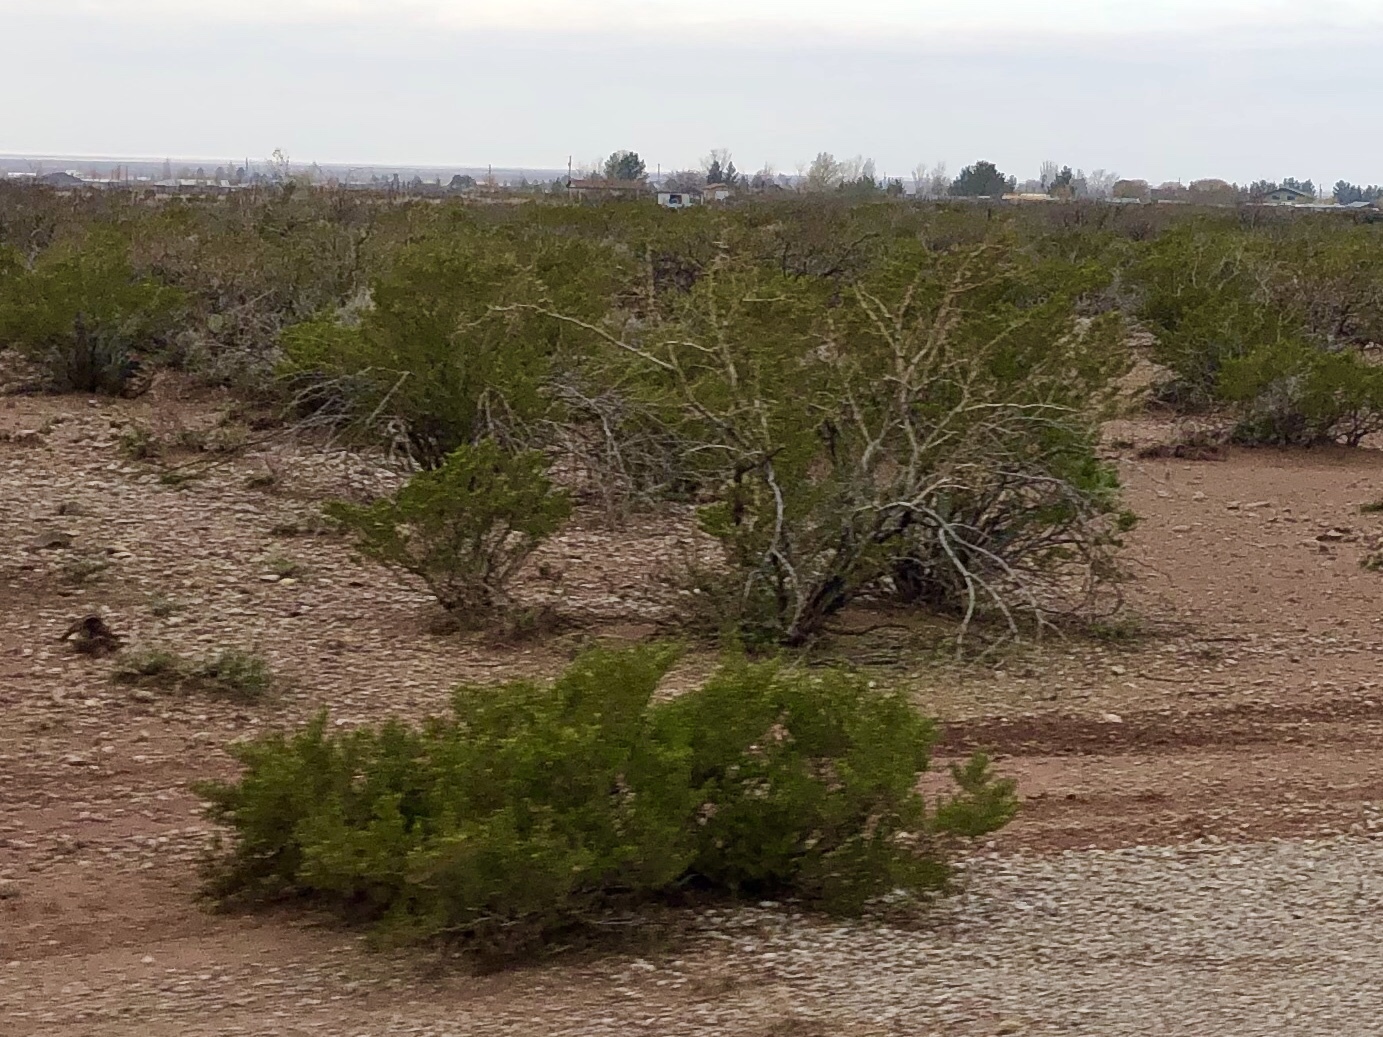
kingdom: Plantae
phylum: Tracheophyta
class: Magnoliopsida
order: Zygophyllales
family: Zygophyllaceae
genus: Larrea
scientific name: Larrea tridentata
